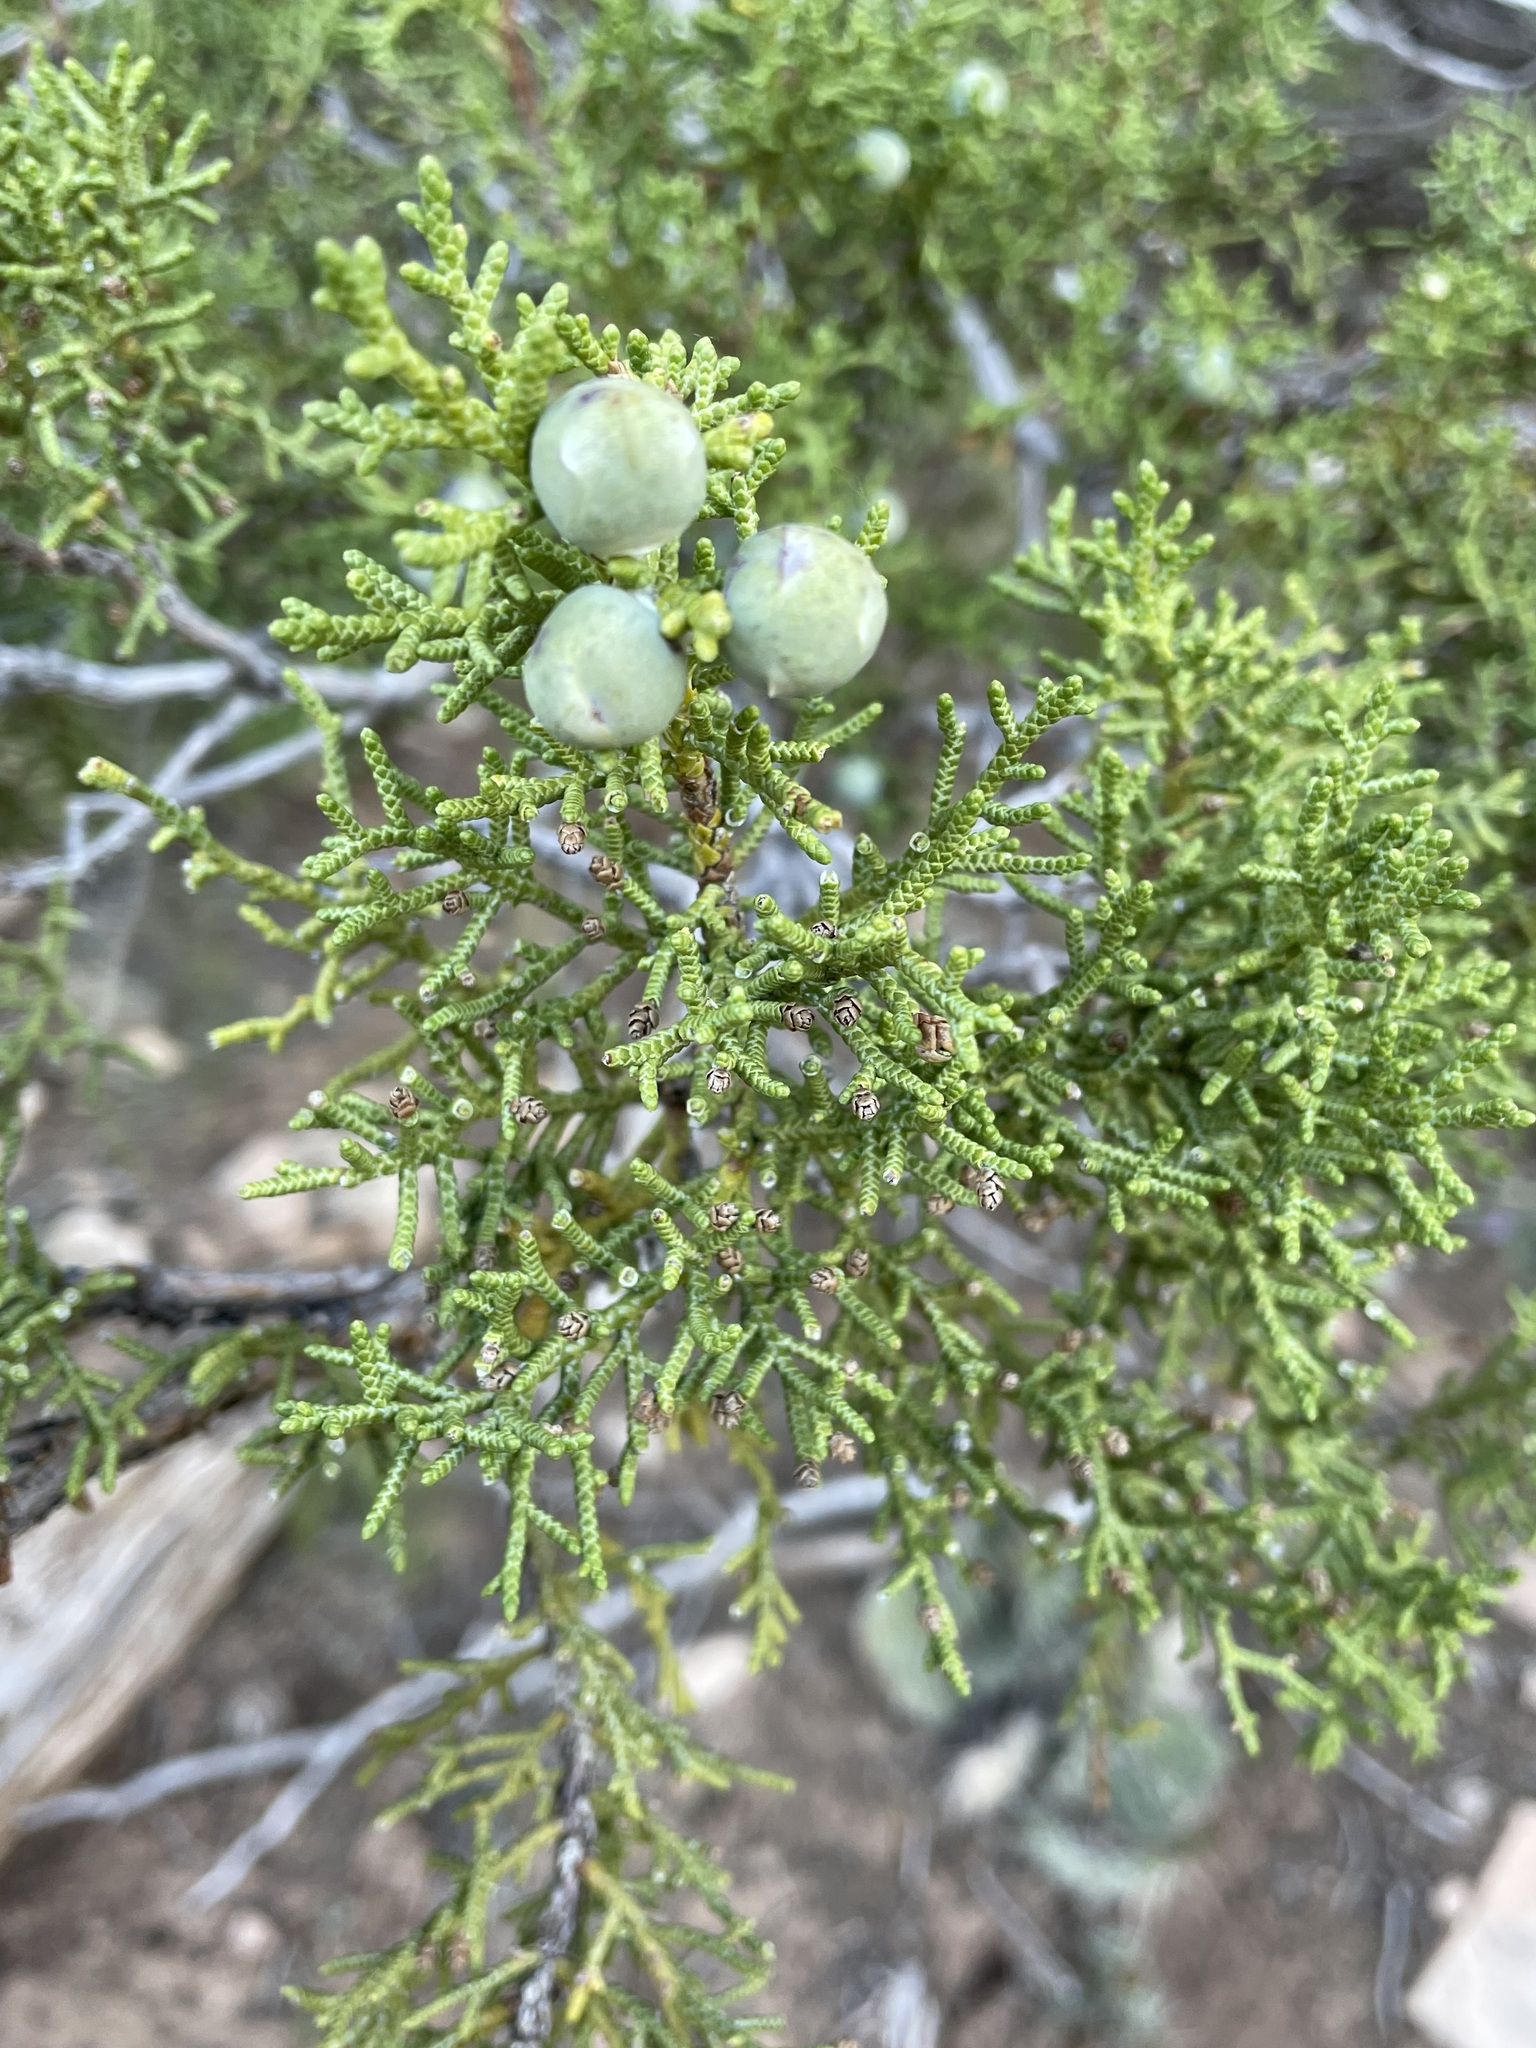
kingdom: Plantae
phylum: Tracheophyta
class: Pinopsida
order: Pinales
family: Cupressaceae
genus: Juniperus
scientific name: Juniperus monosperma
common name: One-seed juniper
